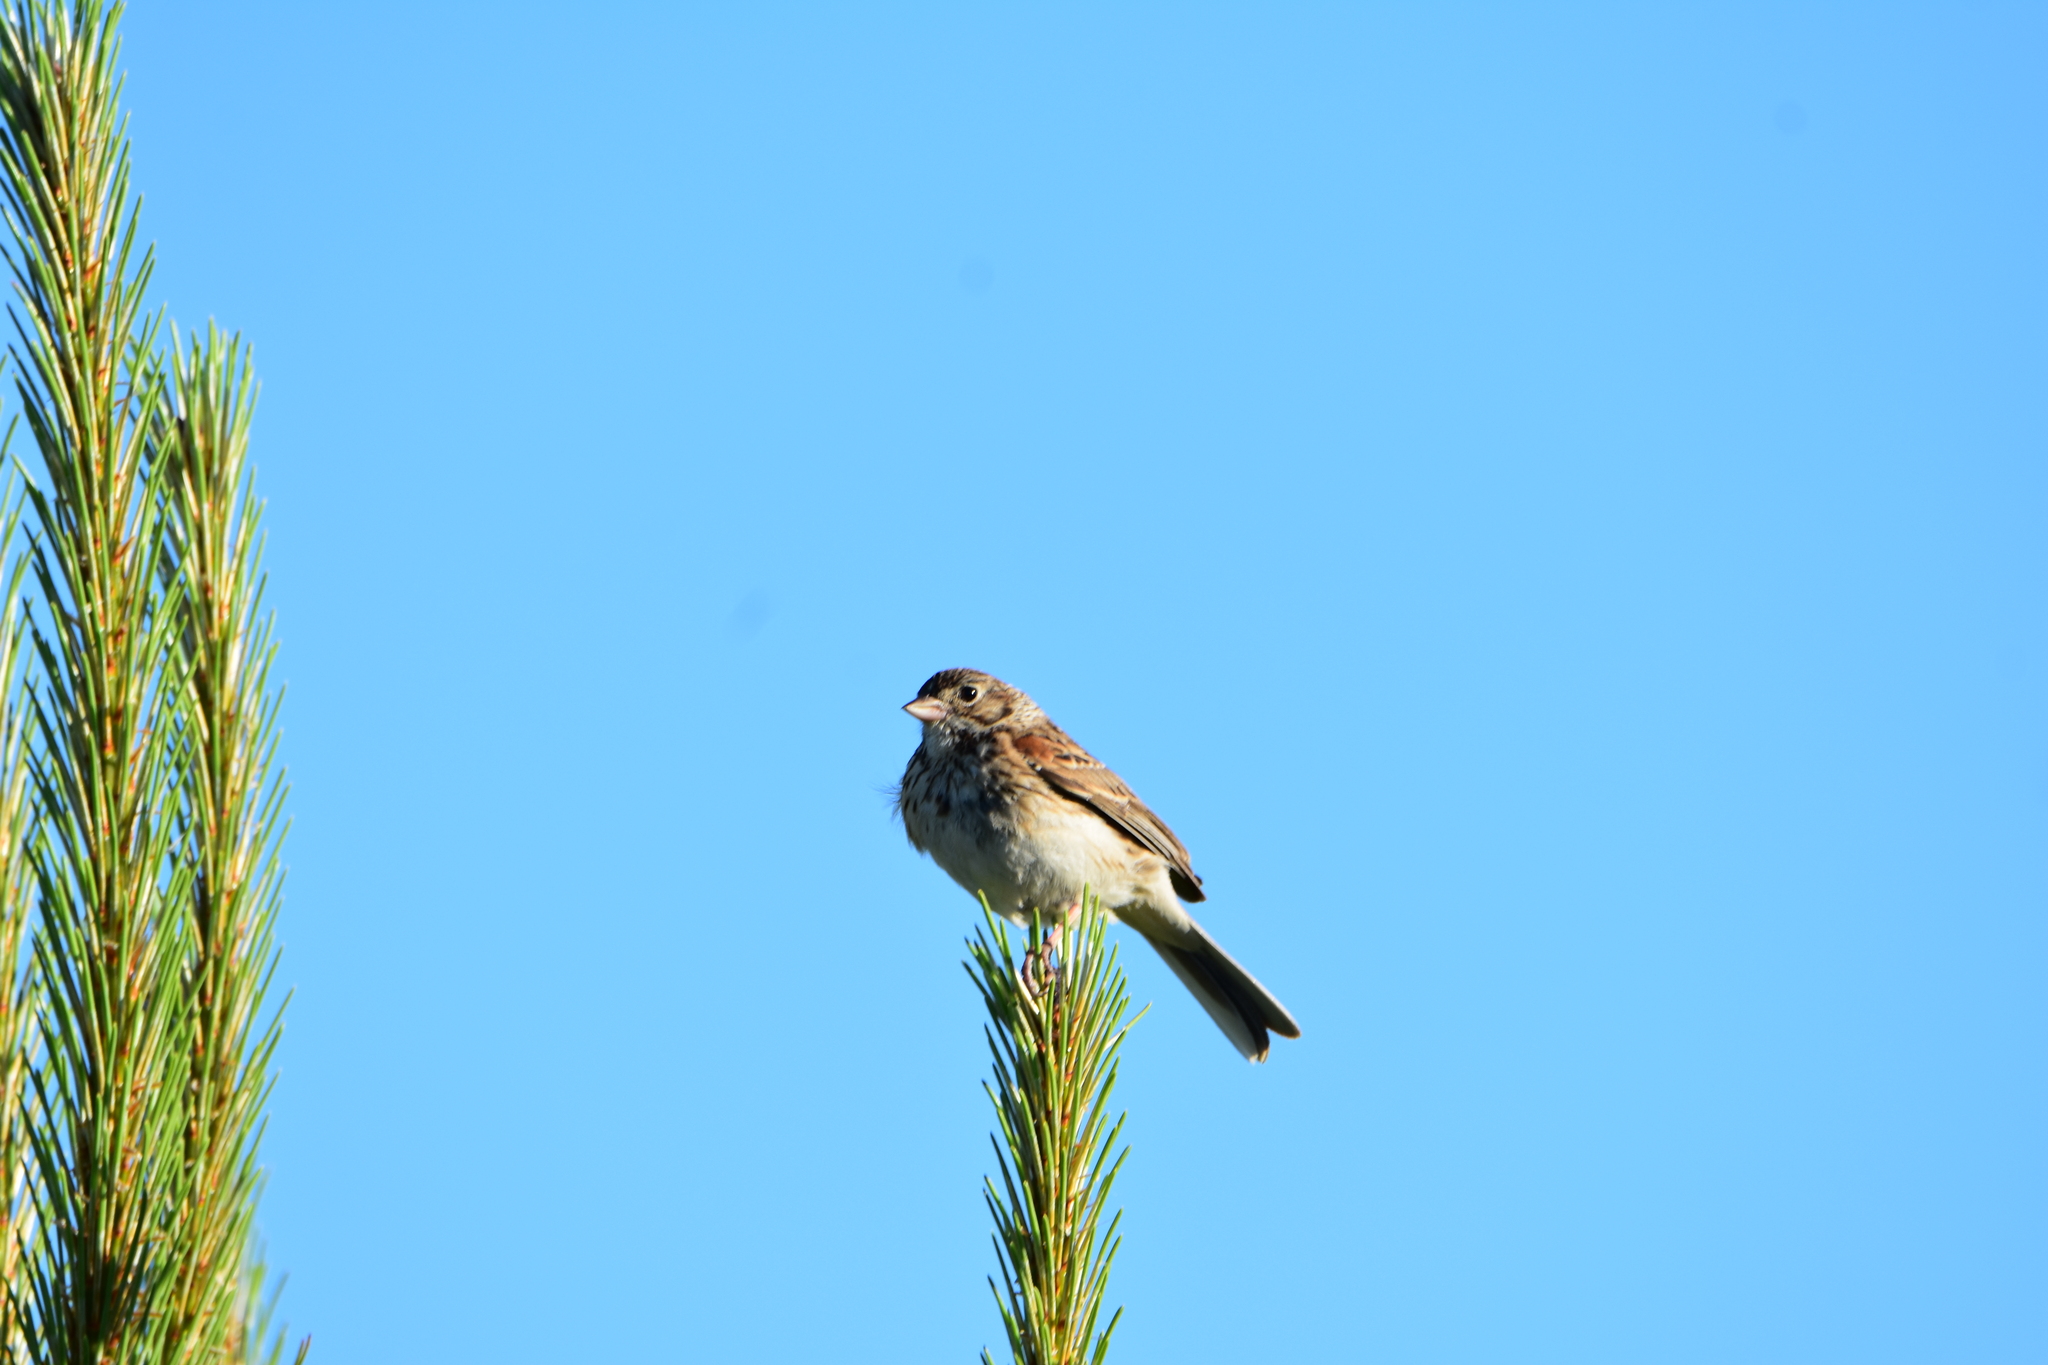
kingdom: Animalia
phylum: Chordata
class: Aves
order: Passeriformes
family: Passerellidae
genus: Pooecetes
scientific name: Pooecetes gramineus
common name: Vesper sparrow
